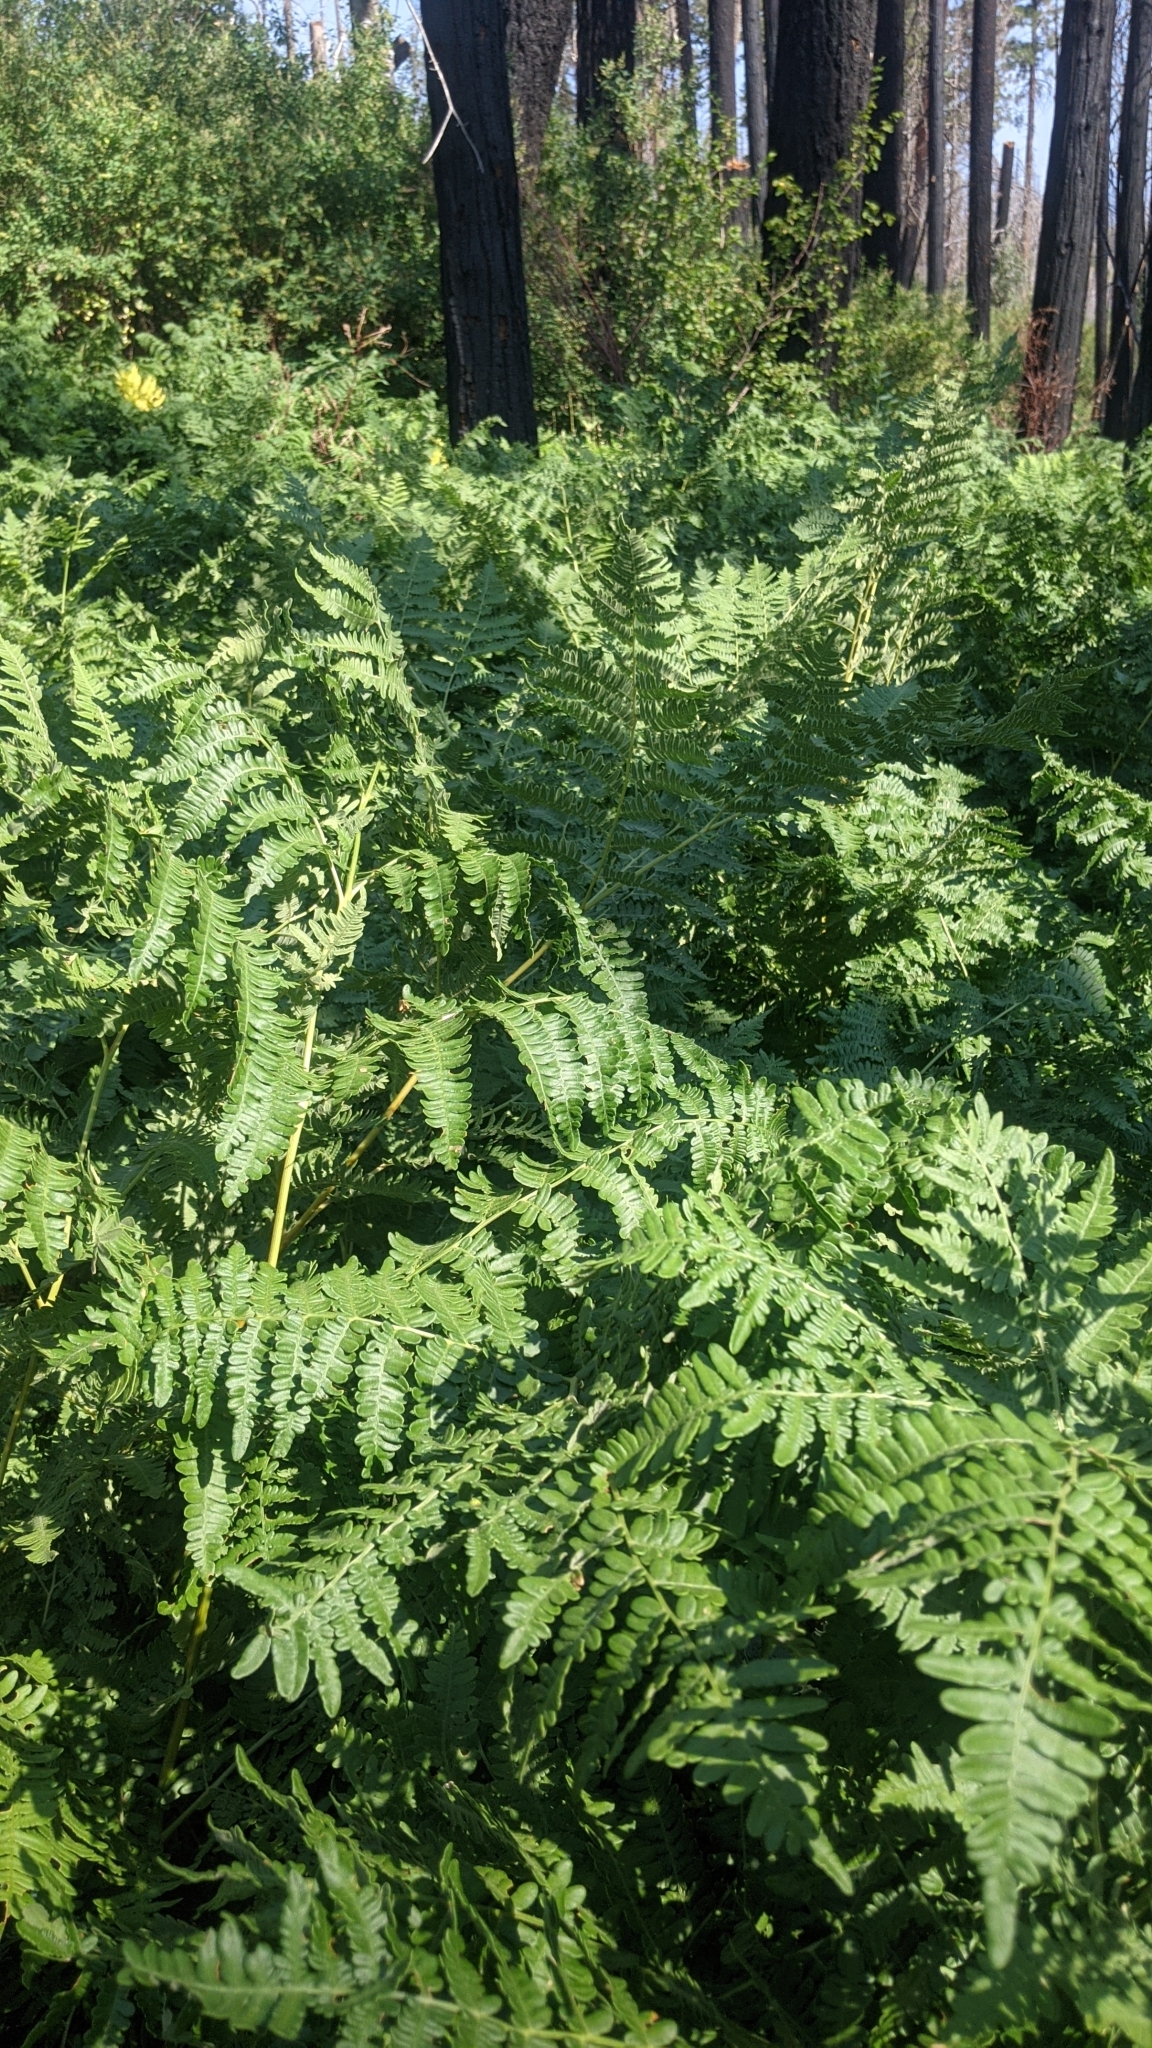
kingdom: Plantae
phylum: Tracheophyta
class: Polypodiopsida
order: Polypodiales
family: Dennstaedtiaceae
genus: Pteridium
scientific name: Pteridium aquilinum
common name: Bracken
